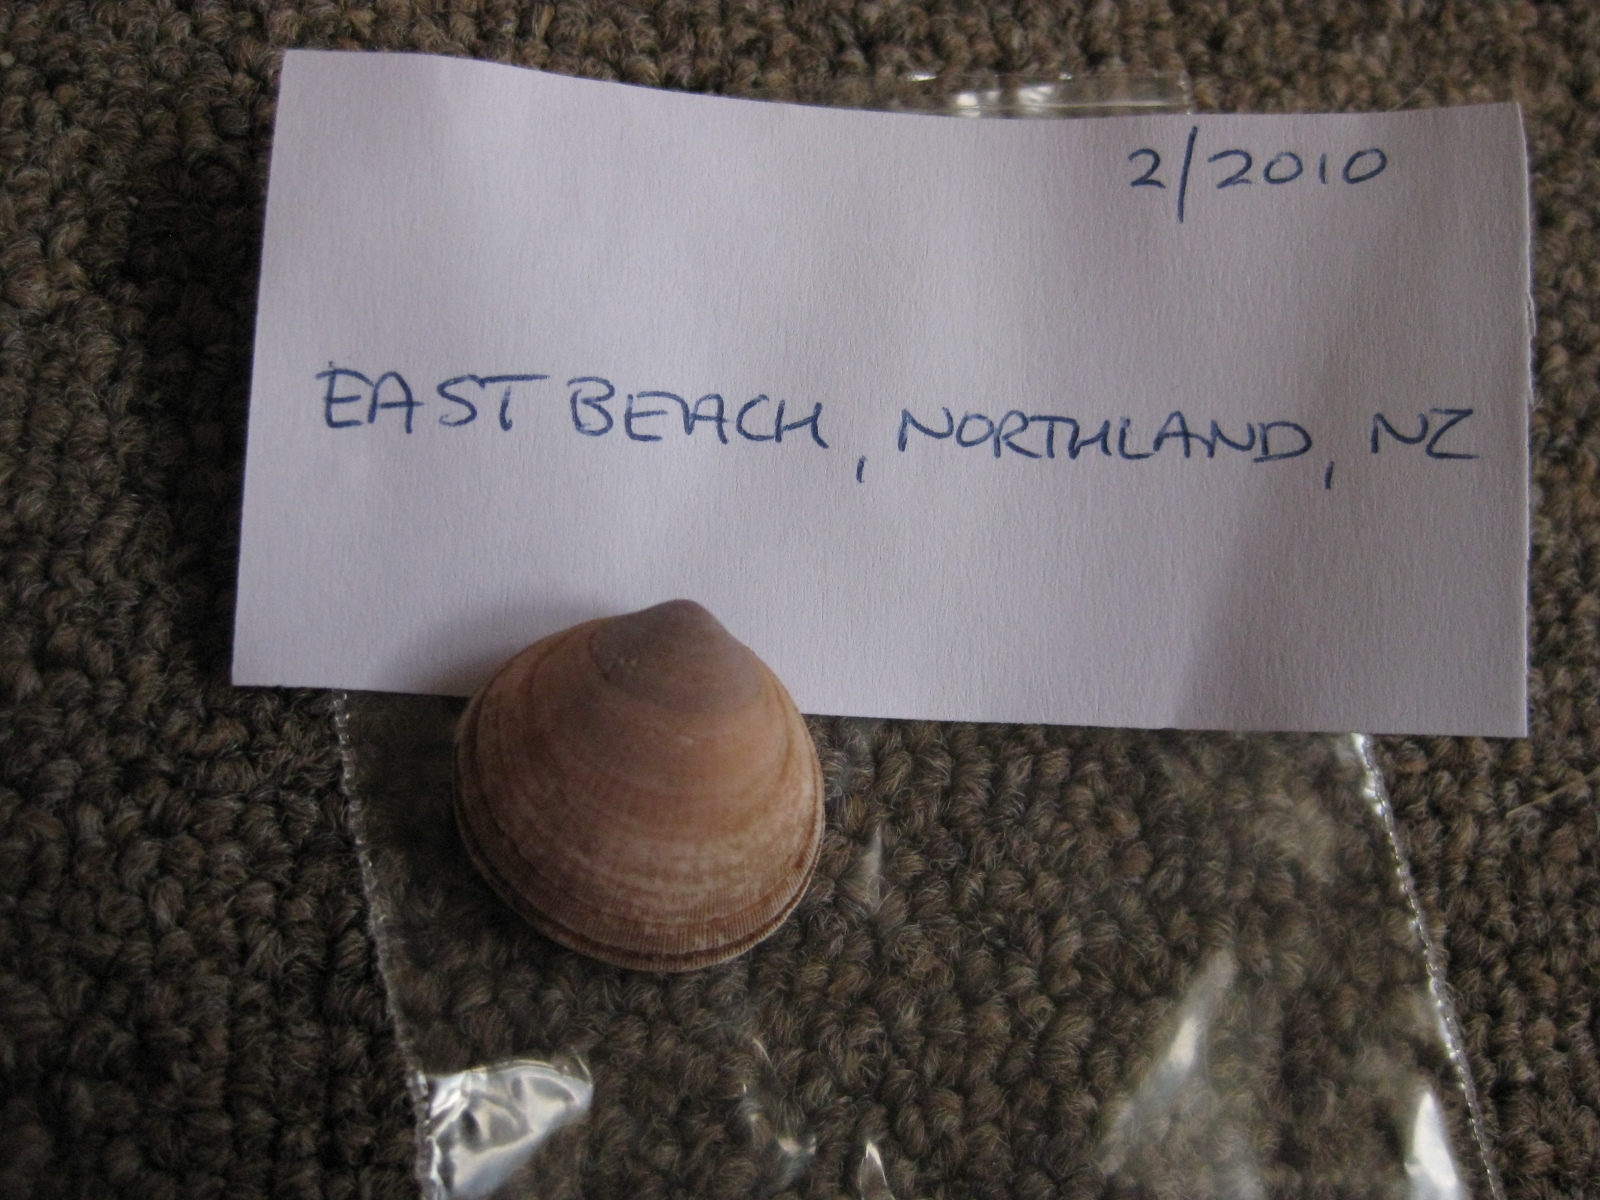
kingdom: Animalia
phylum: Mollusca
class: Bivalvia
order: Arcida
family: Glycymerididae
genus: Glycymeris
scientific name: Glycymeris modesta
